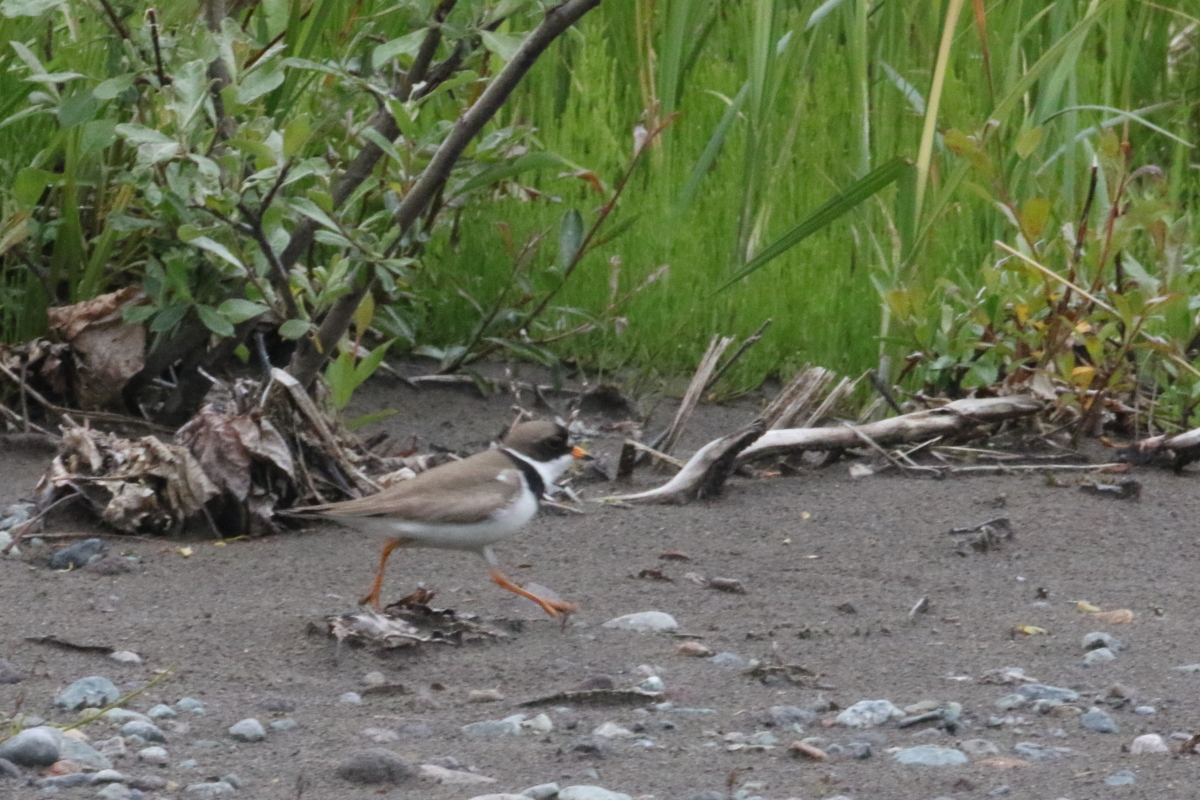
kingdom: Animalia
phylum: Chordata
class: Aves
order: Charadriiformes
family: Charadriidae
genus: Charadrius
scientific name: Charadrius semipalmatus
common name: Semipalmated plover
